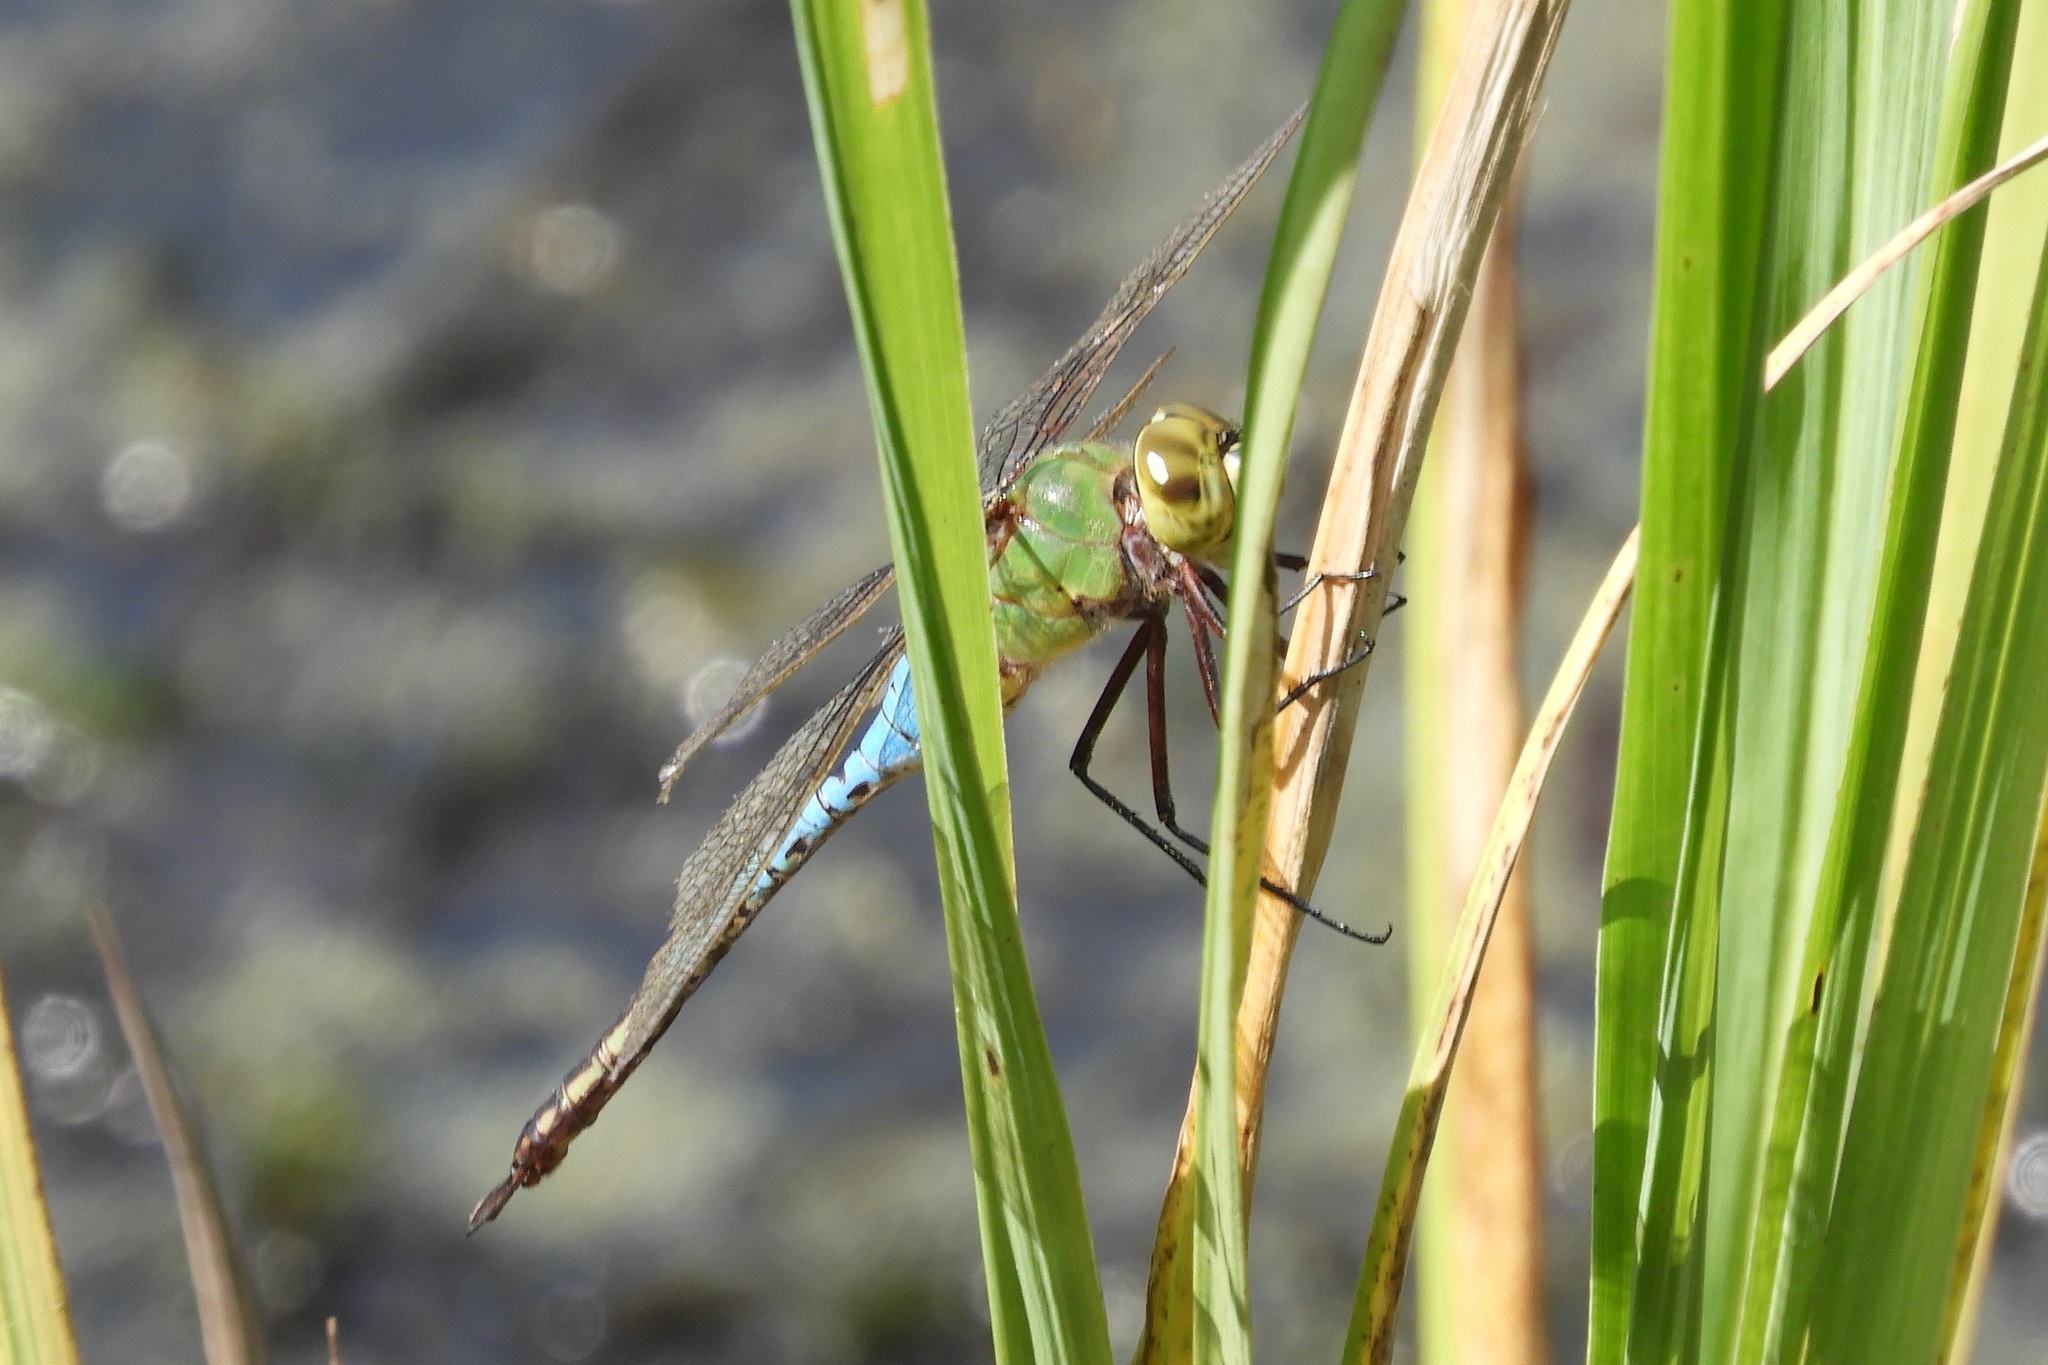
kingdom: Animalia
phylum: Arthropoda
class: Insecta
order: Odonata
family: Aeshnidae
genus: Anax
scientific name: Anax junius
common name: Common green darner
